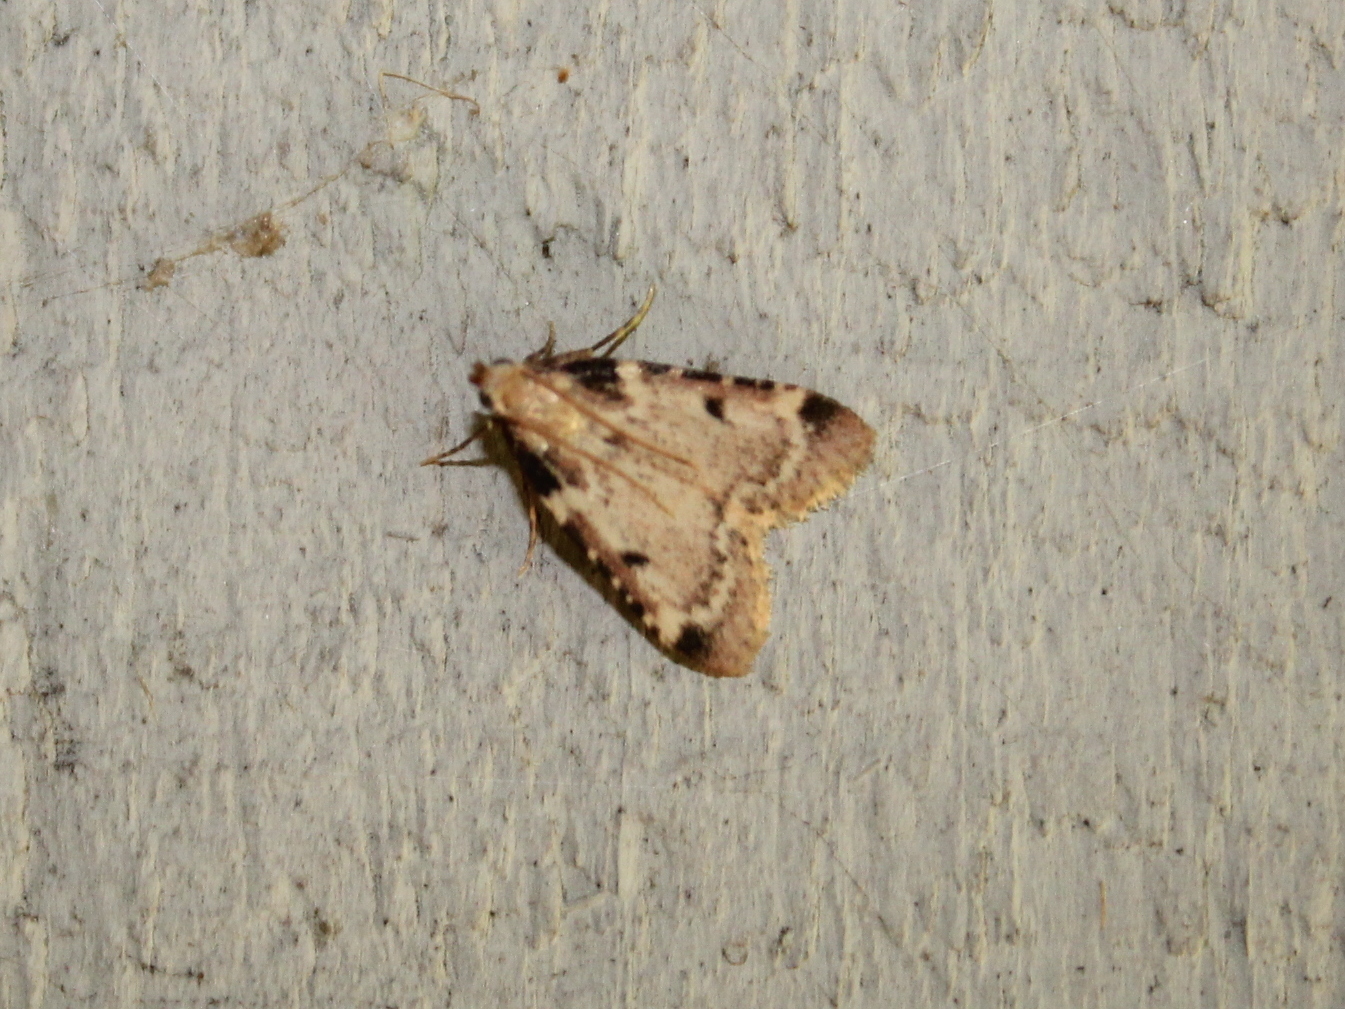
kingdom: Animalia
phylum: Arthropoda
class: Insecta
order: Lepidoptera
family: Pyralidae
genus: Aglossa
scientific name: Aglossa costiferalis
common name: Calico pyralid moth
